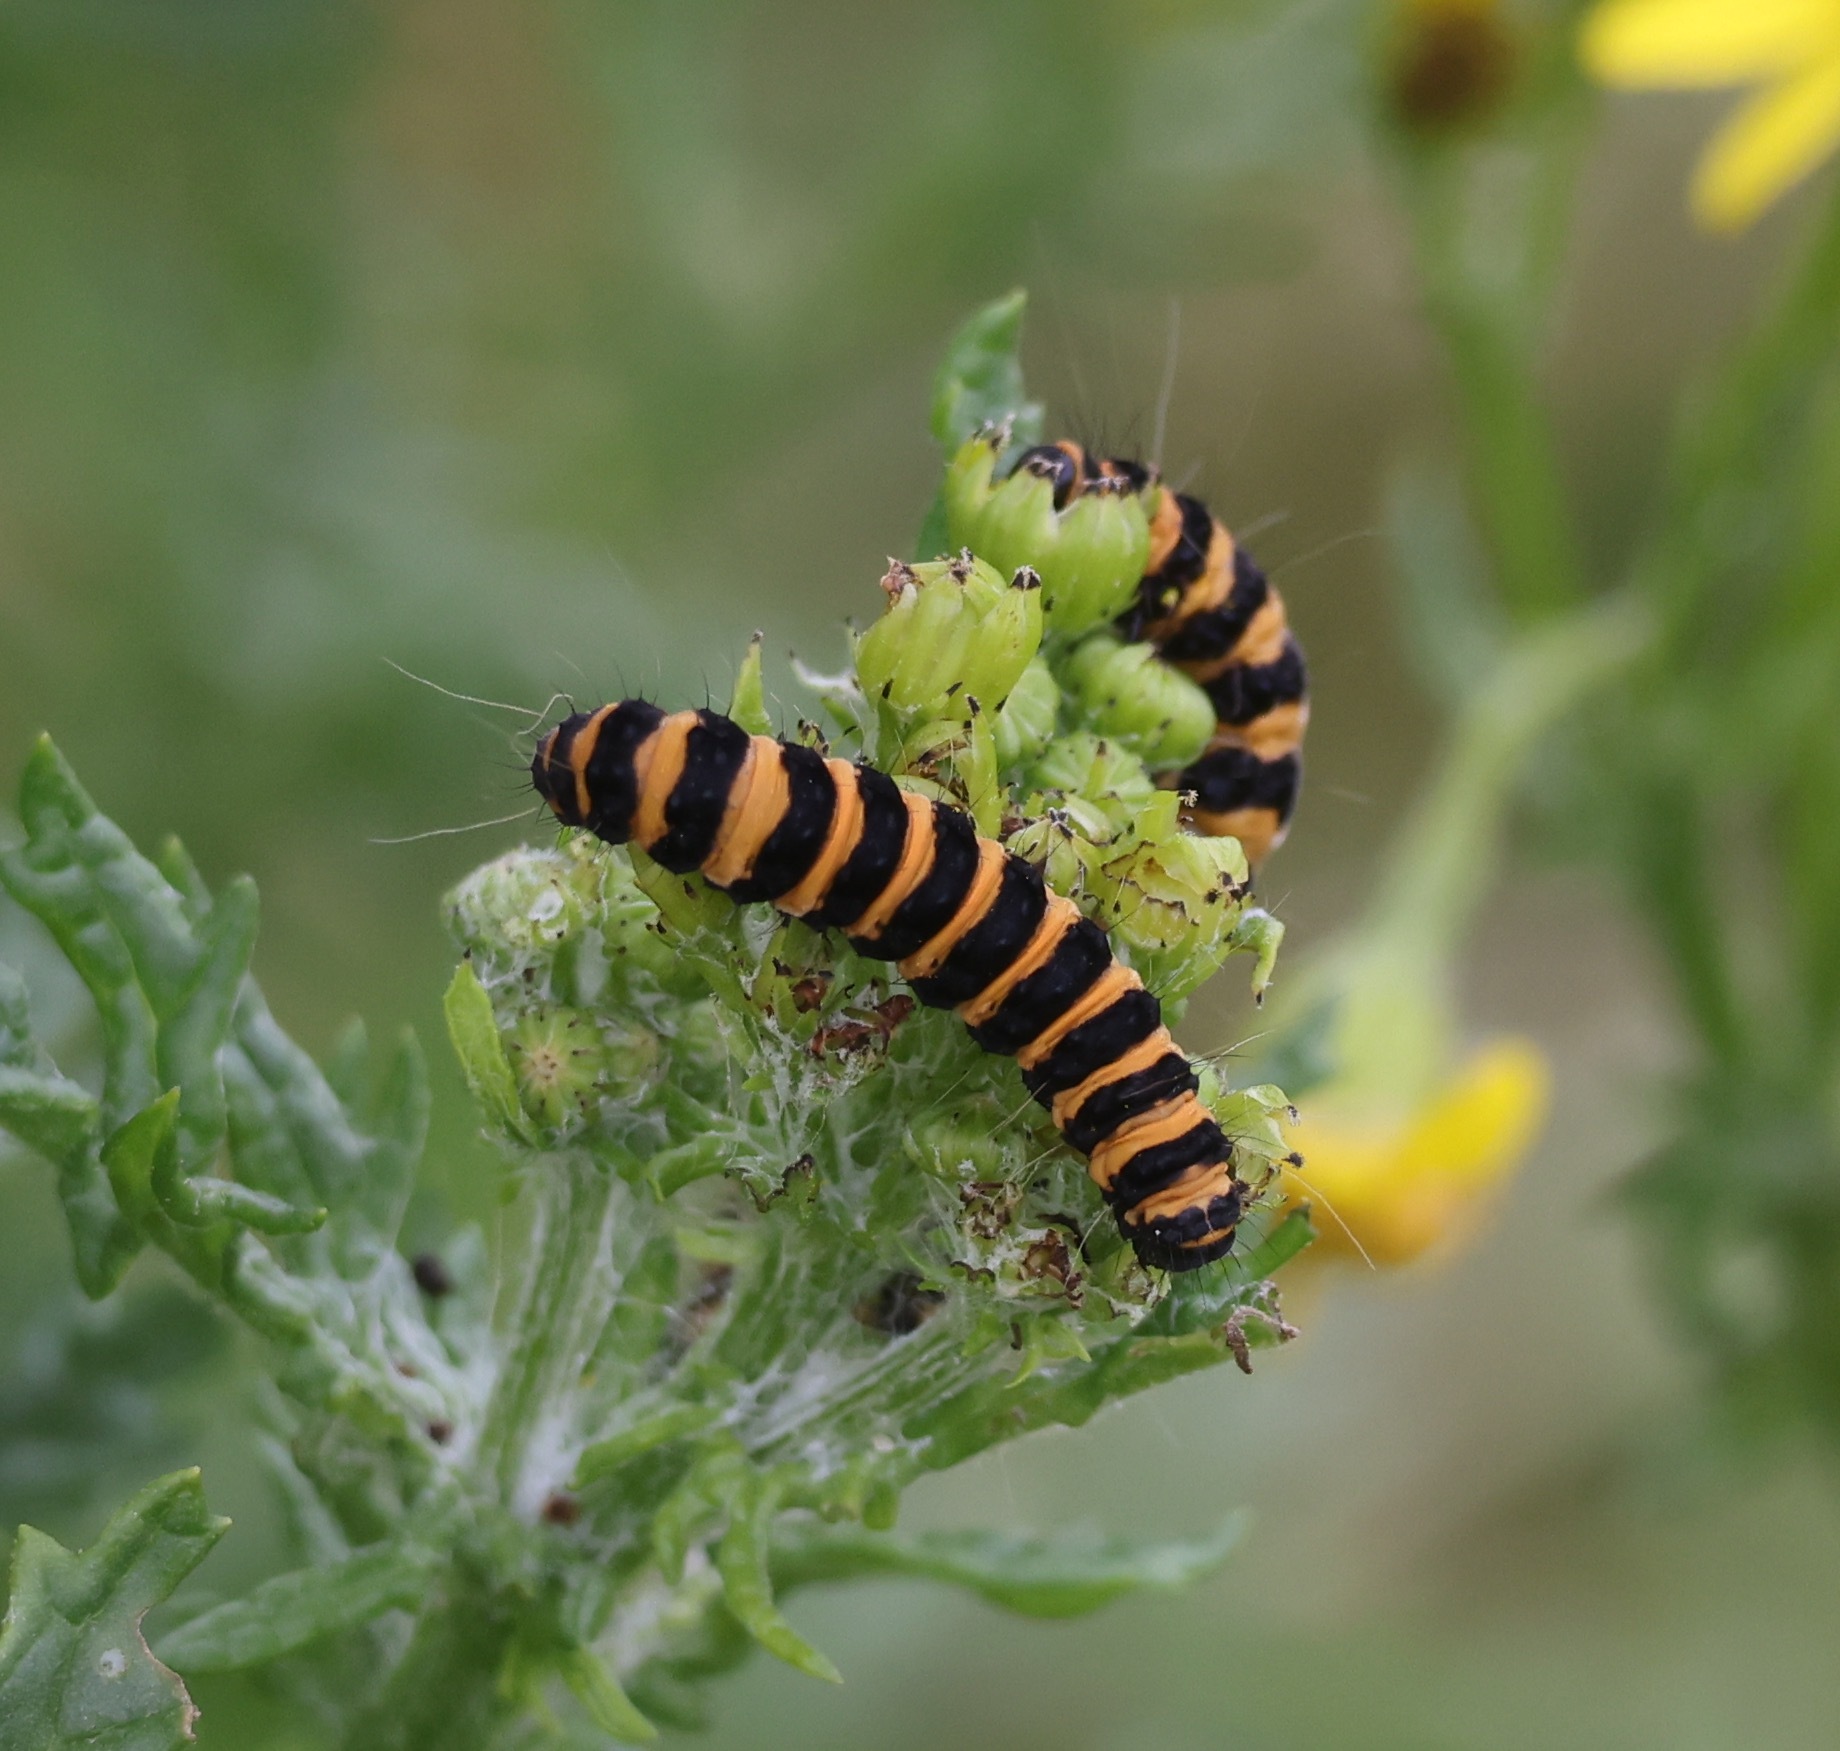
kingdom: Animalia
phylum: Arthropoda
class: Insecta
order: Lepidoptera
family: Erebidae
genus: Tyria
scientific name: Tyria jacobaeae
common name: Cinnabar
